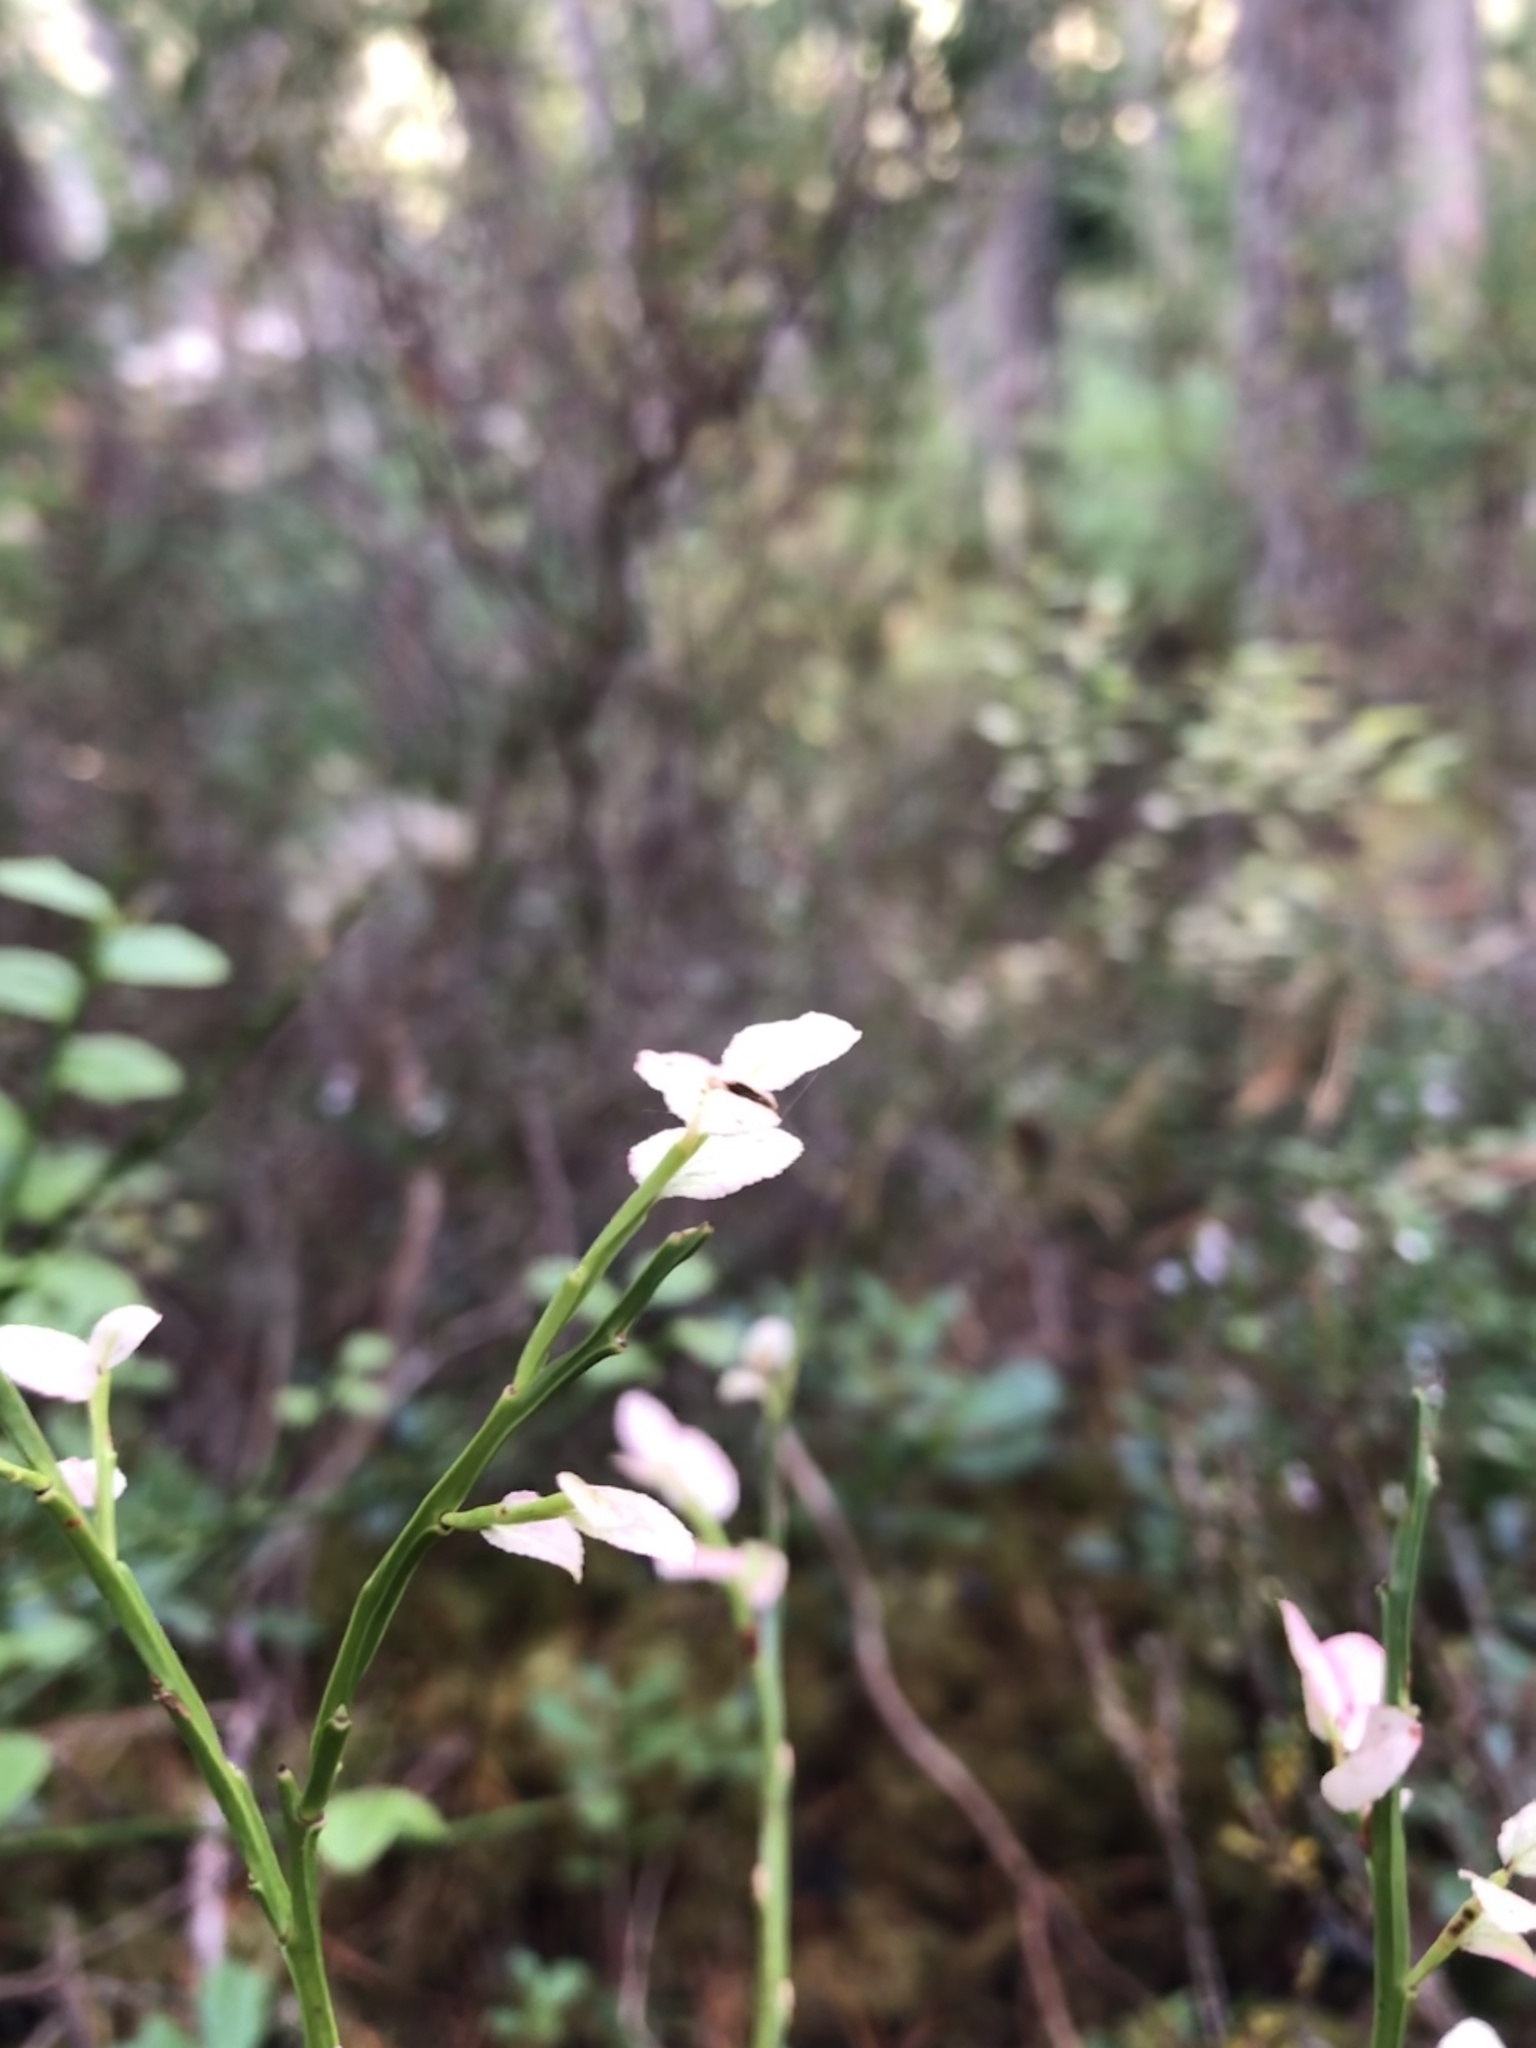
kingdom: Plantae
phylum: Tracheophyta
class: Magnoliopsida
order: Ericales
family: Ericaceae
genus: Vaccinium
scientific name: Vaccinium myrtillus
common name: Bilberry
